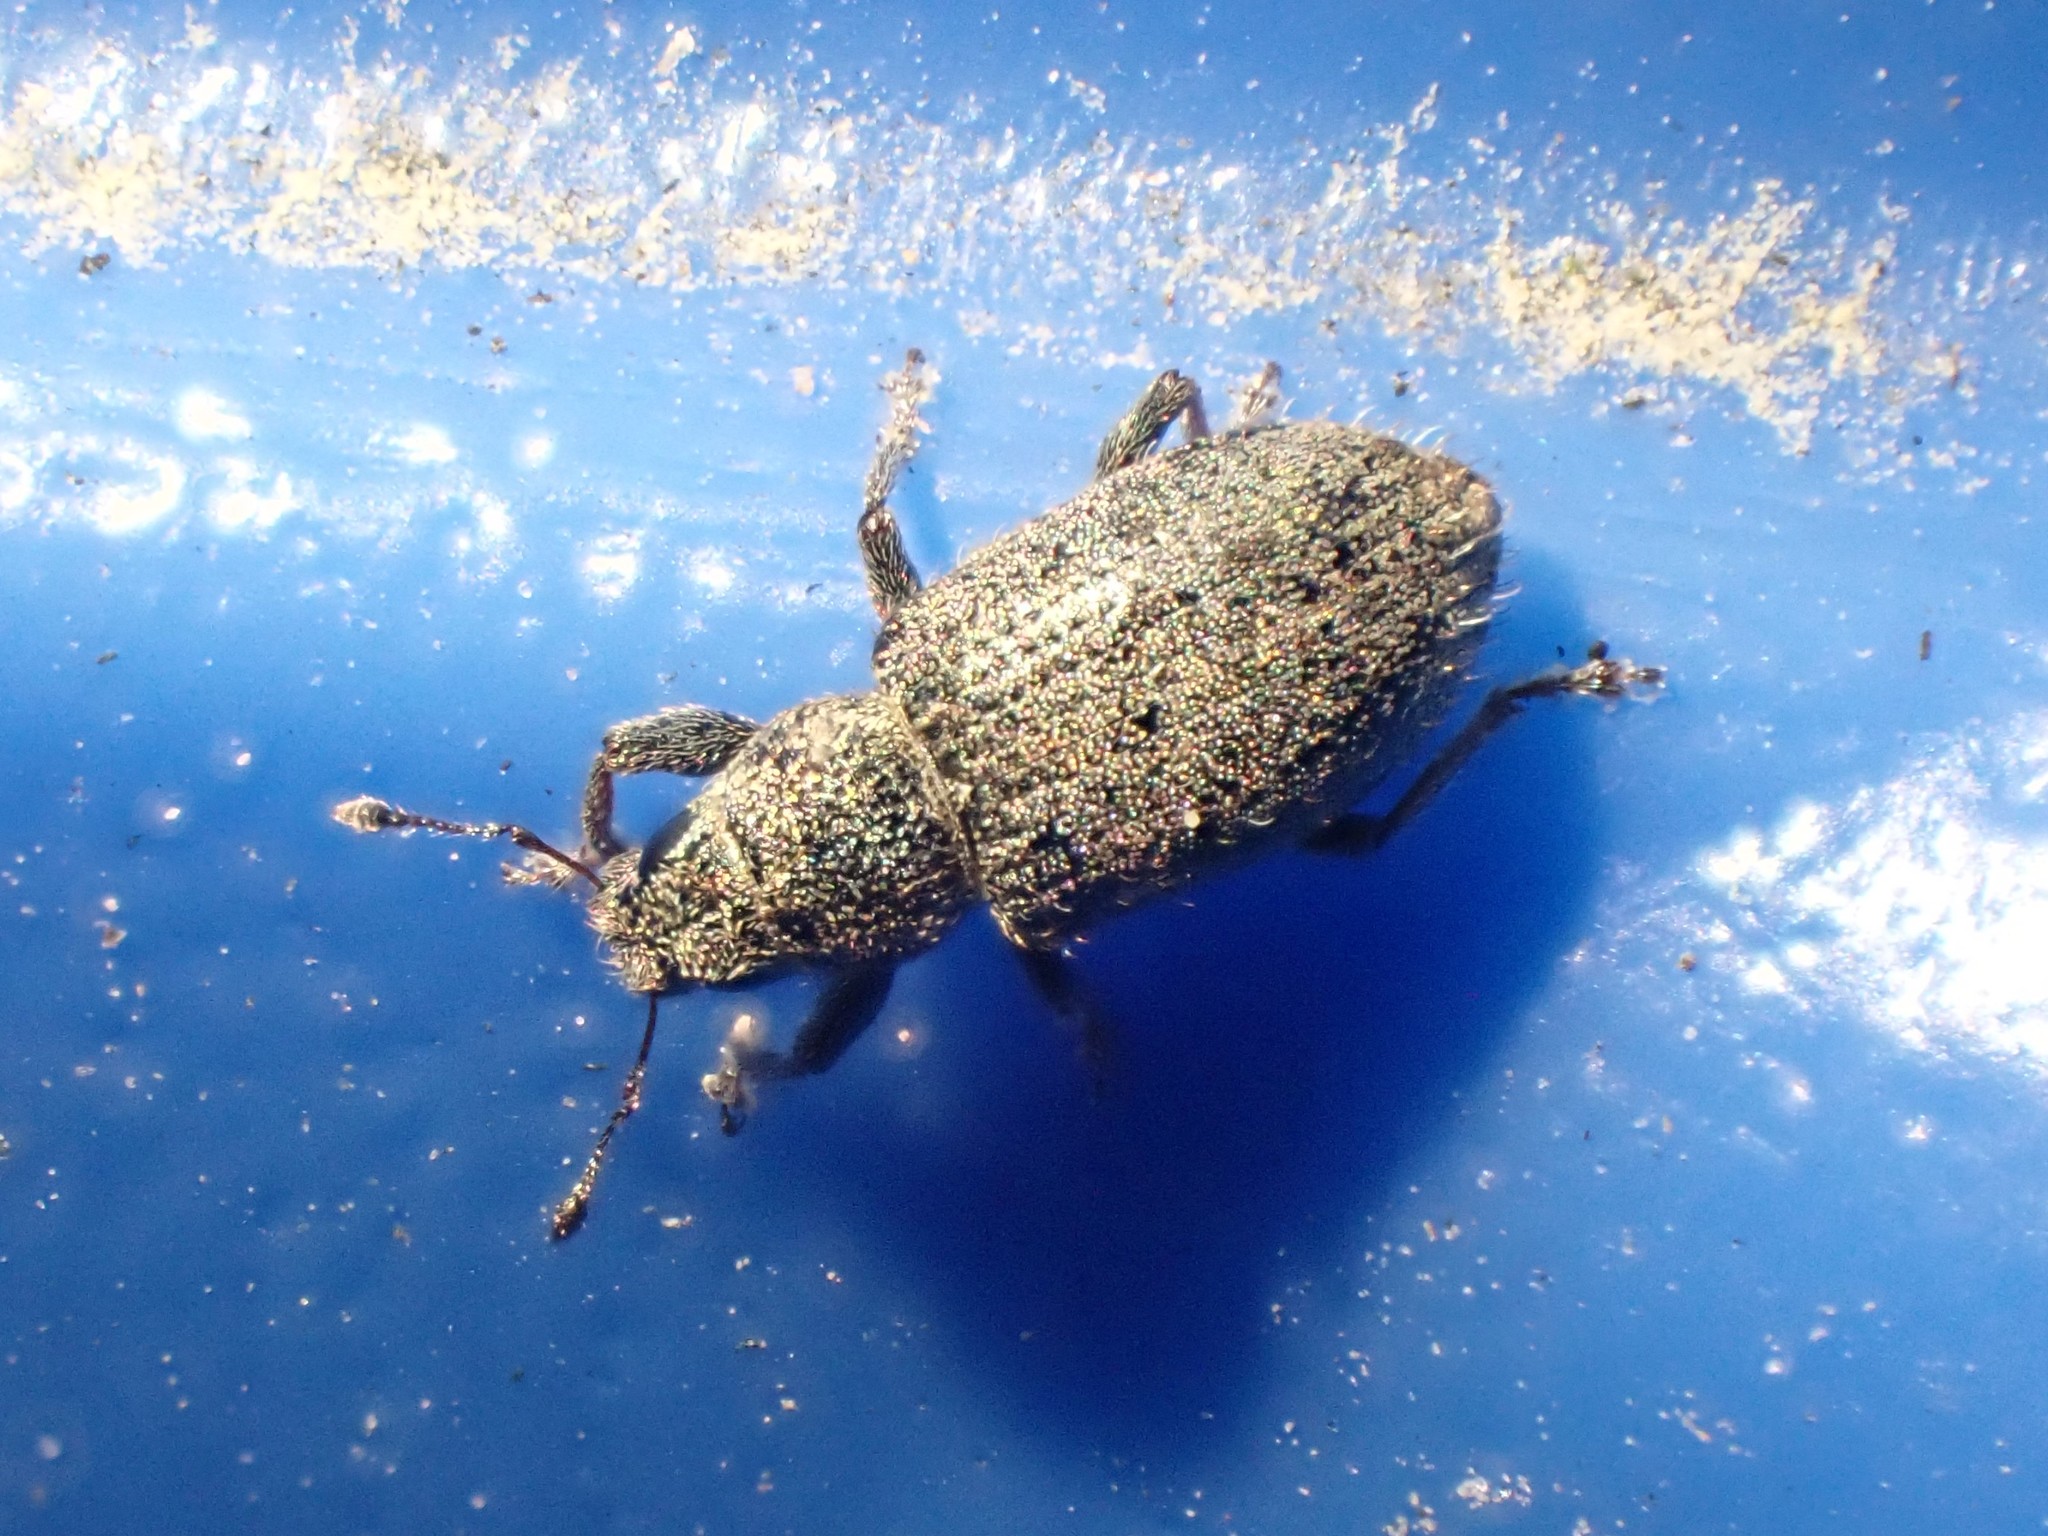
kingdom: Animalia
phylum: Arthropoda
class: Insecta
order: Coleoptera
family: Curculionidae
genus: Sitona
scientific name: Sitona hispidulus
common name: Clover weevil
